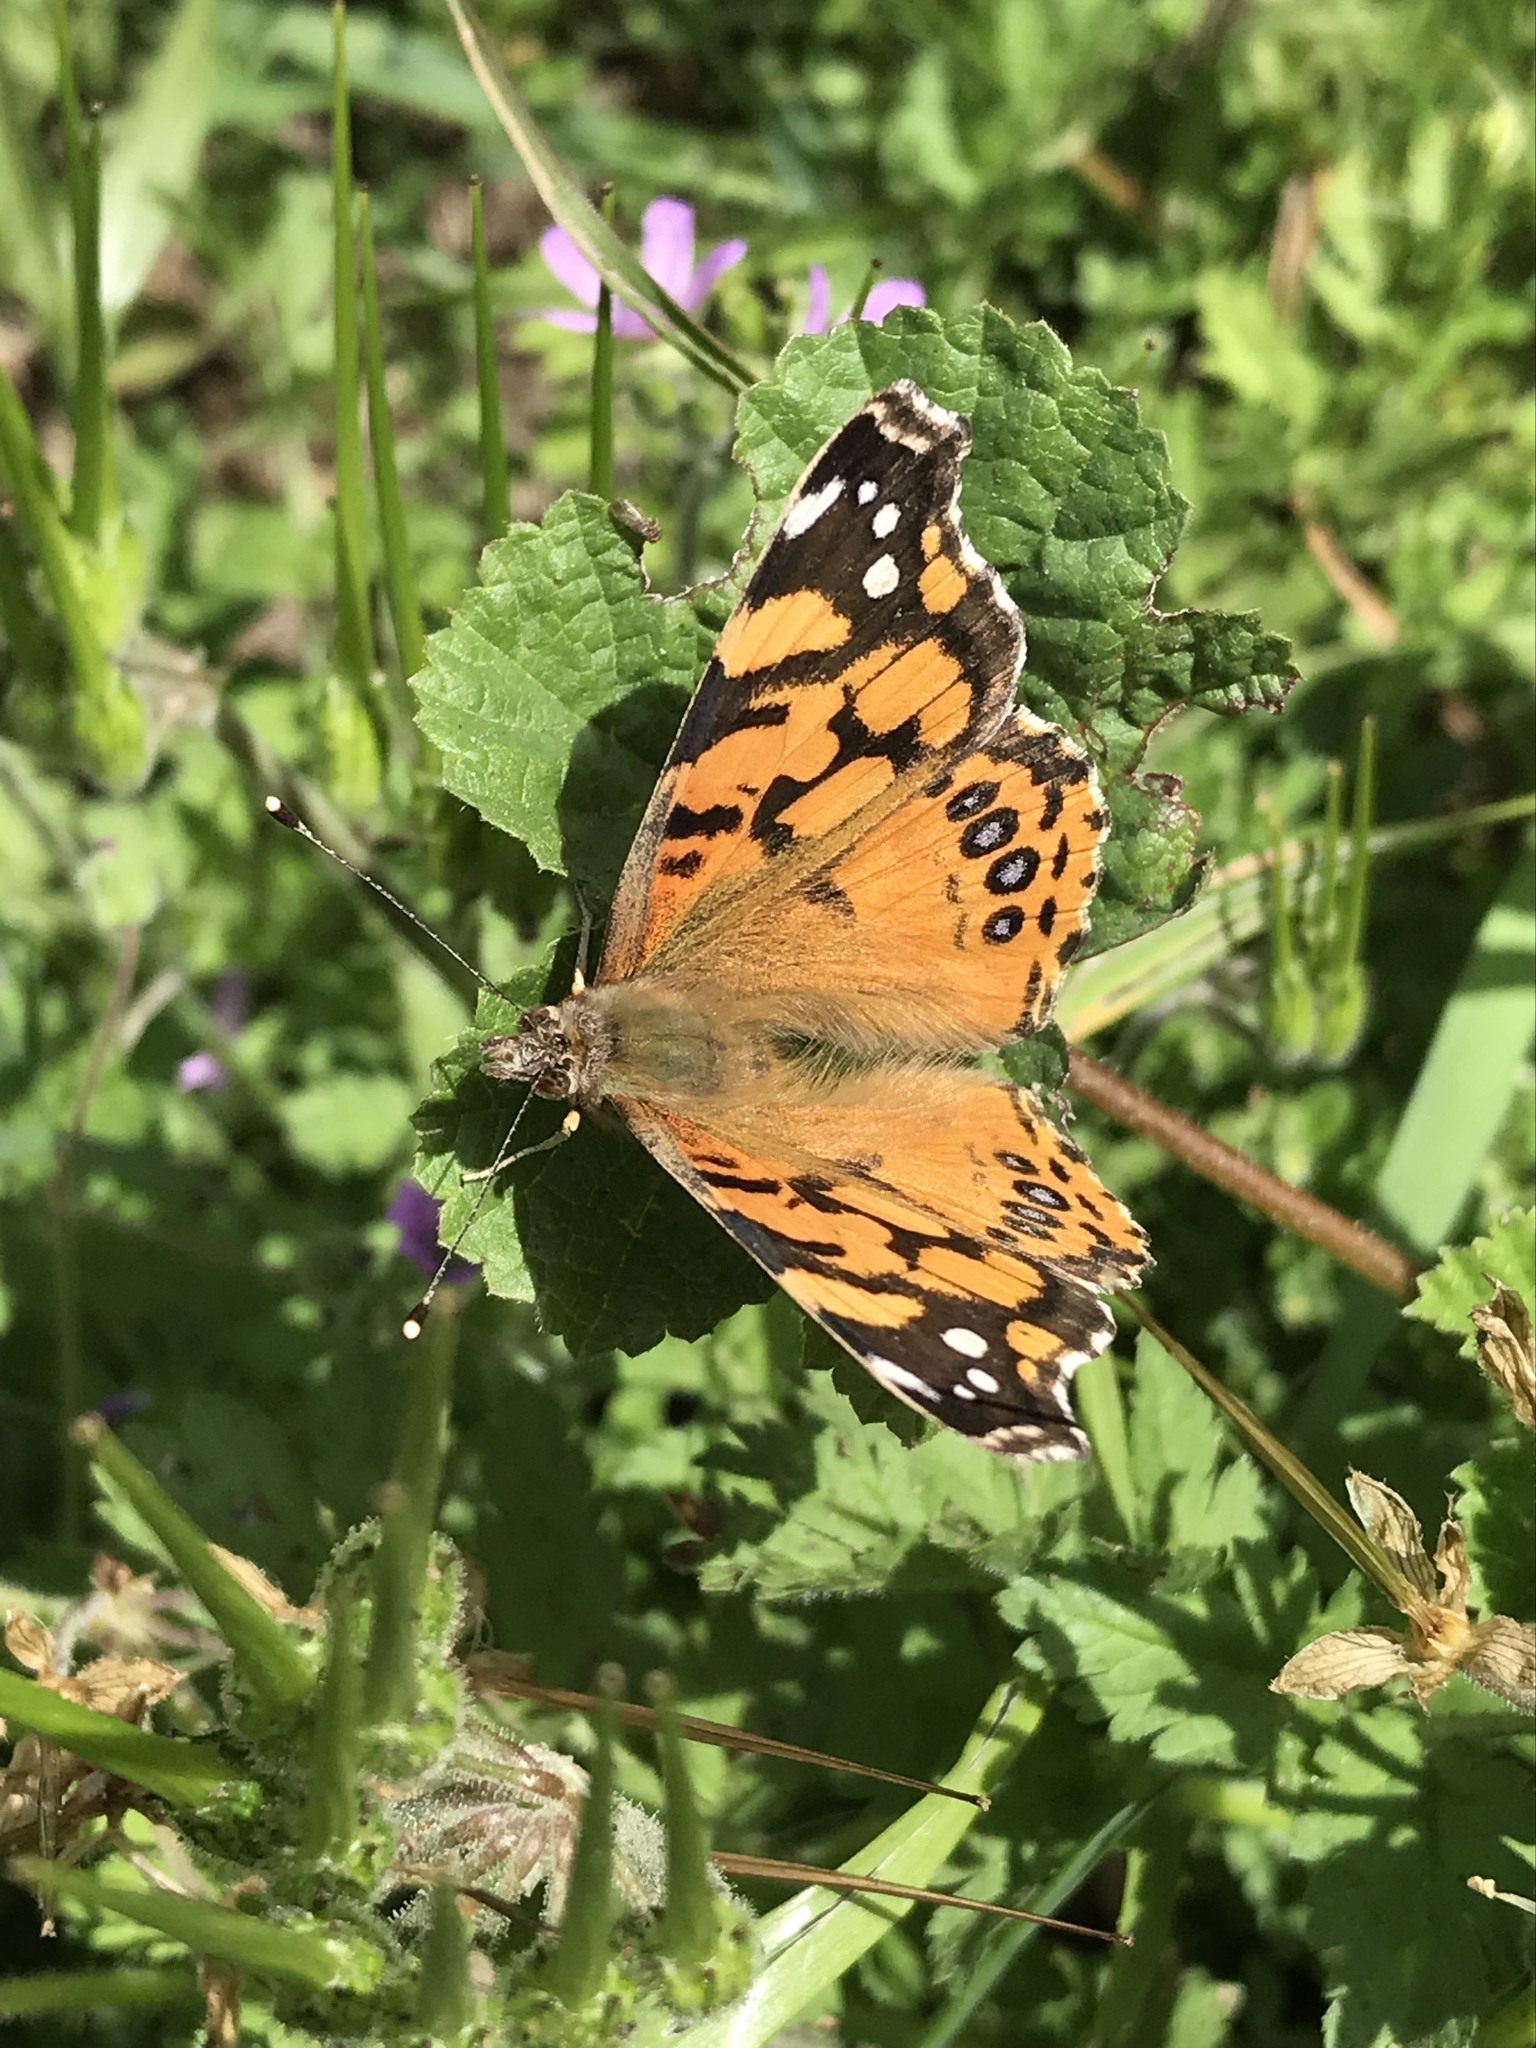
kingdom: Animalia
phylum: Arthropoda
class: Insecta
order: Lepidoptera
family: Nymphalidae
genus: Vanessa
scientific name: Vanessa annabella
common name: West coast lady
